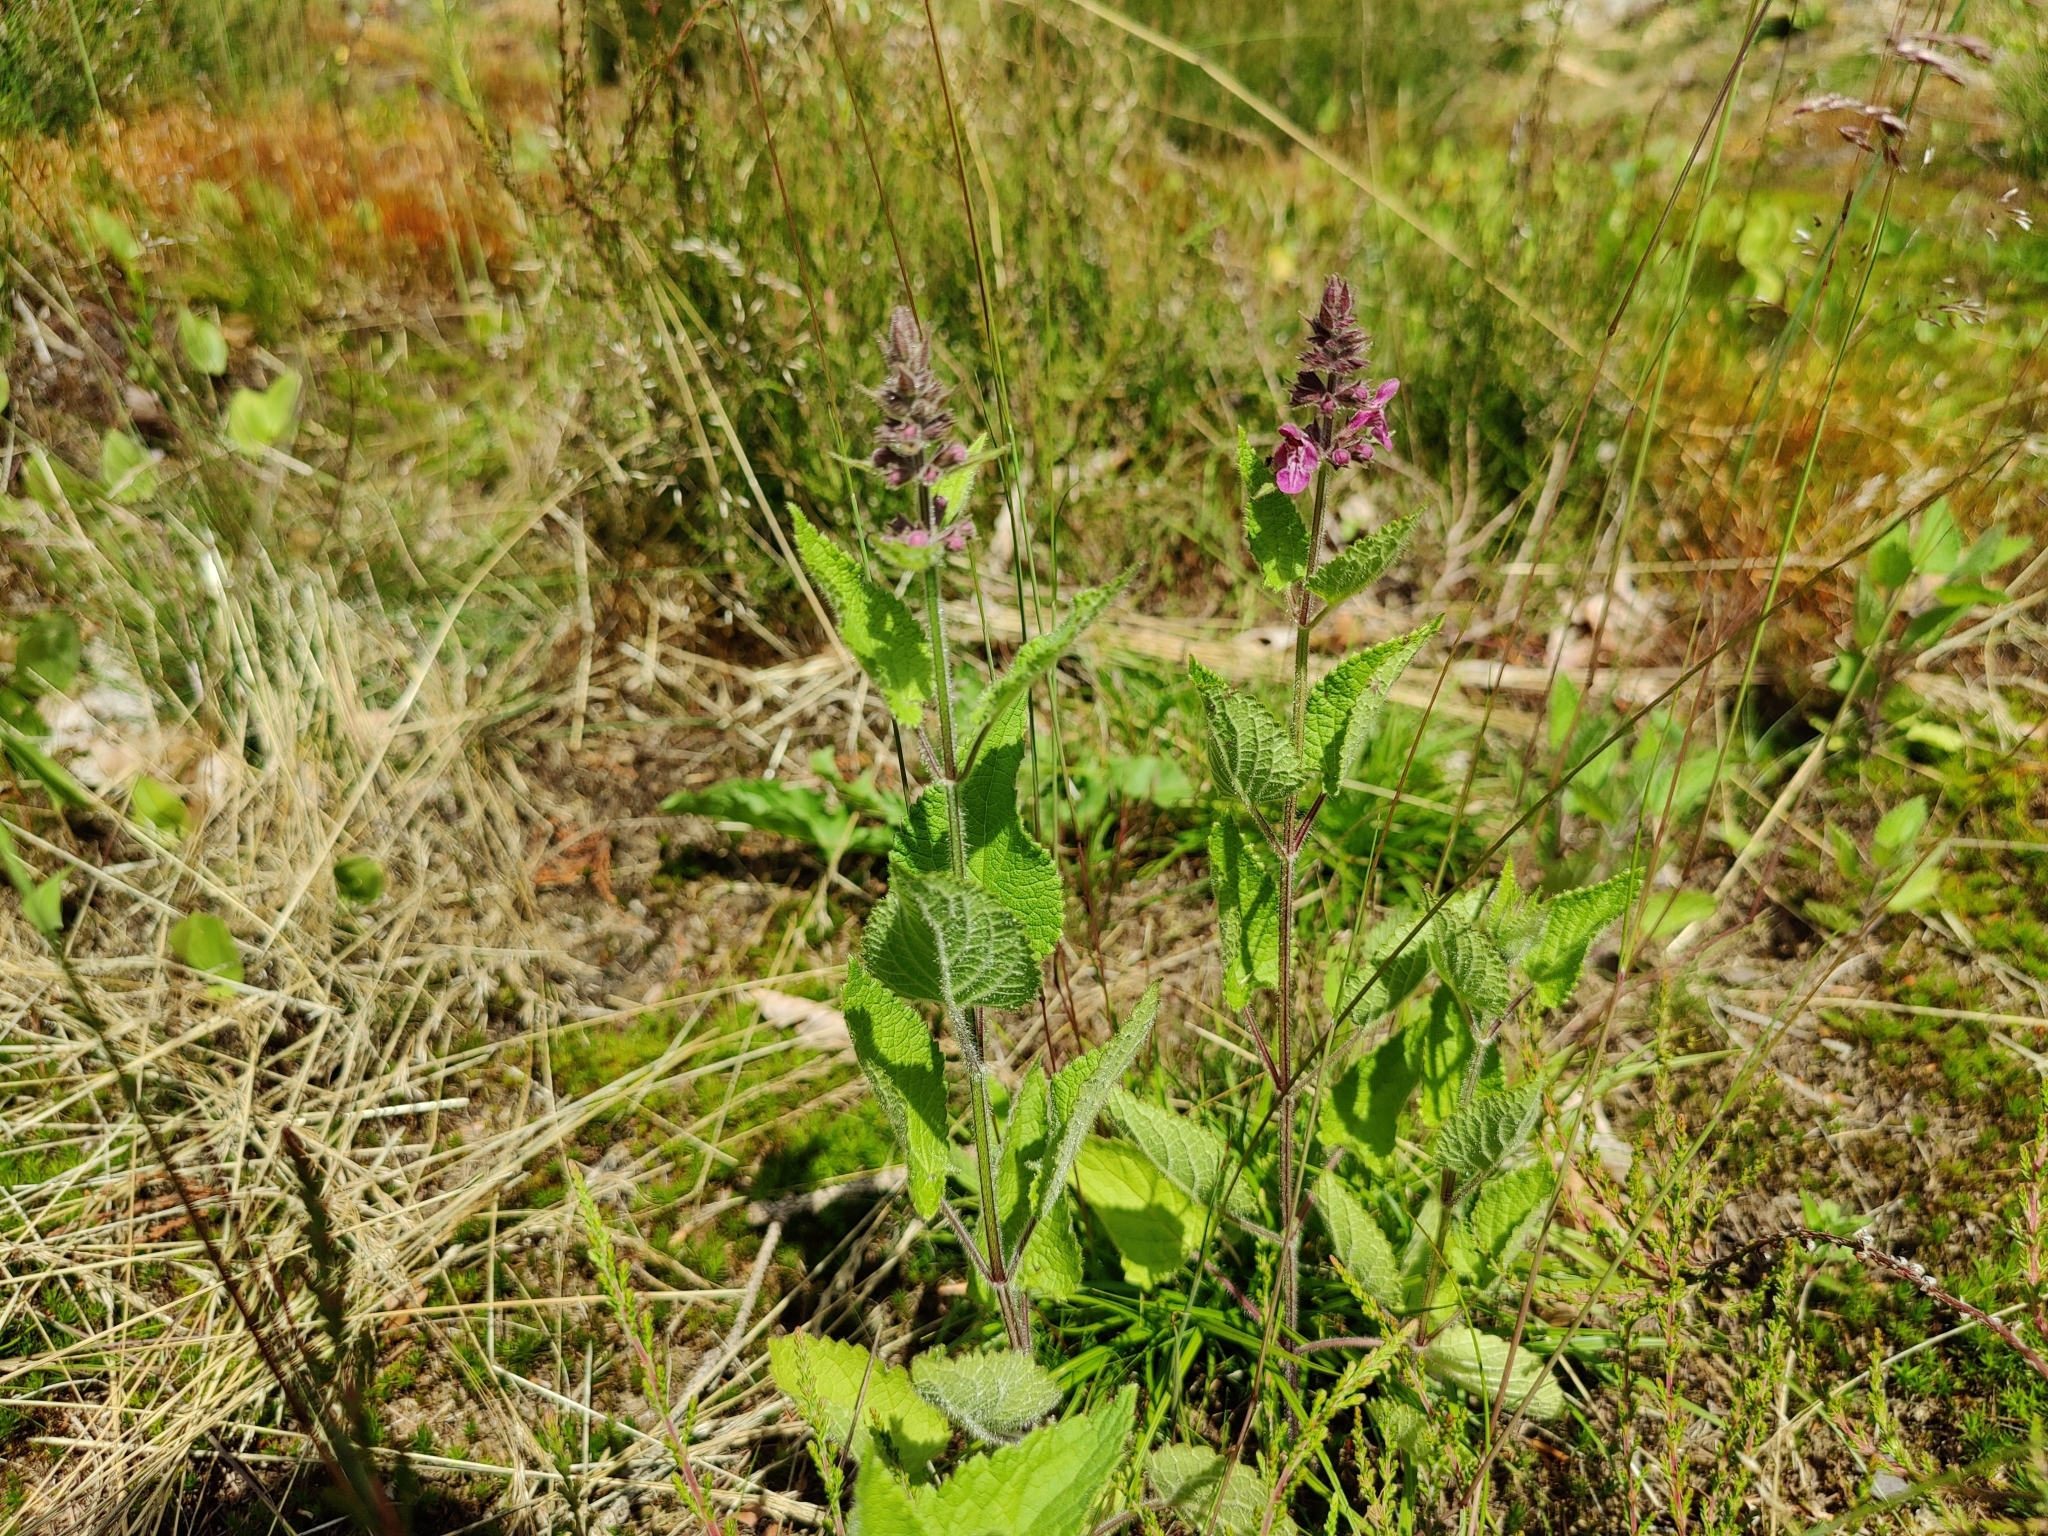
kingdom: Plantae
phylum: Tracheophyta
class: Magnoliopsida
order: Lamiales
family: Lamiaceae
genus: Stachys
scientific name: Stachys sylvatica
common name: Hedge woundwort
